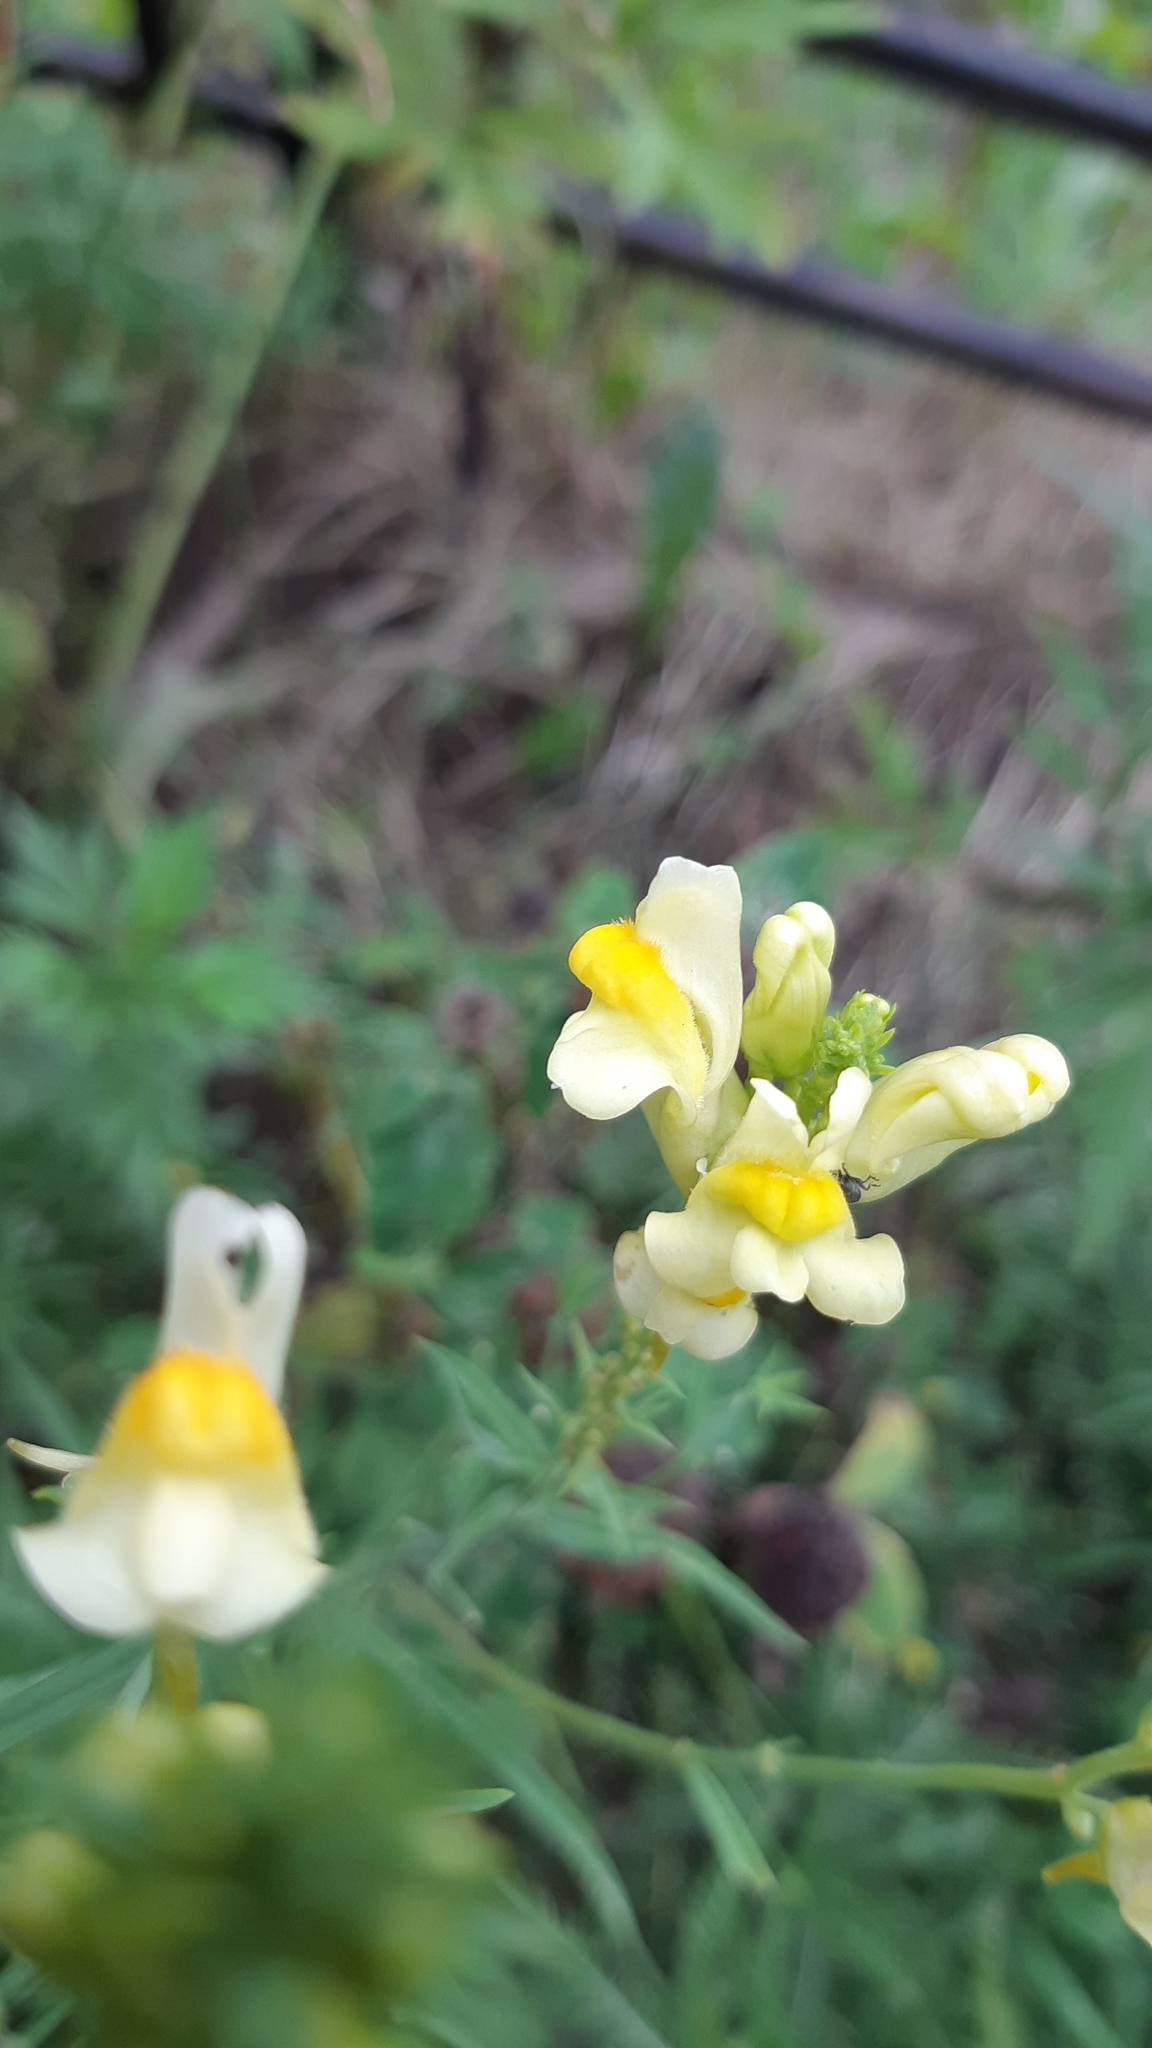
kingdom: Plantae
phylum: Tracheophyta
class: Magnoliopsida
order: Lamiales
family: Plantaginaceae
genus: Linaria
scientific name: Linaria vulgaris
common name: Butter and eggs
